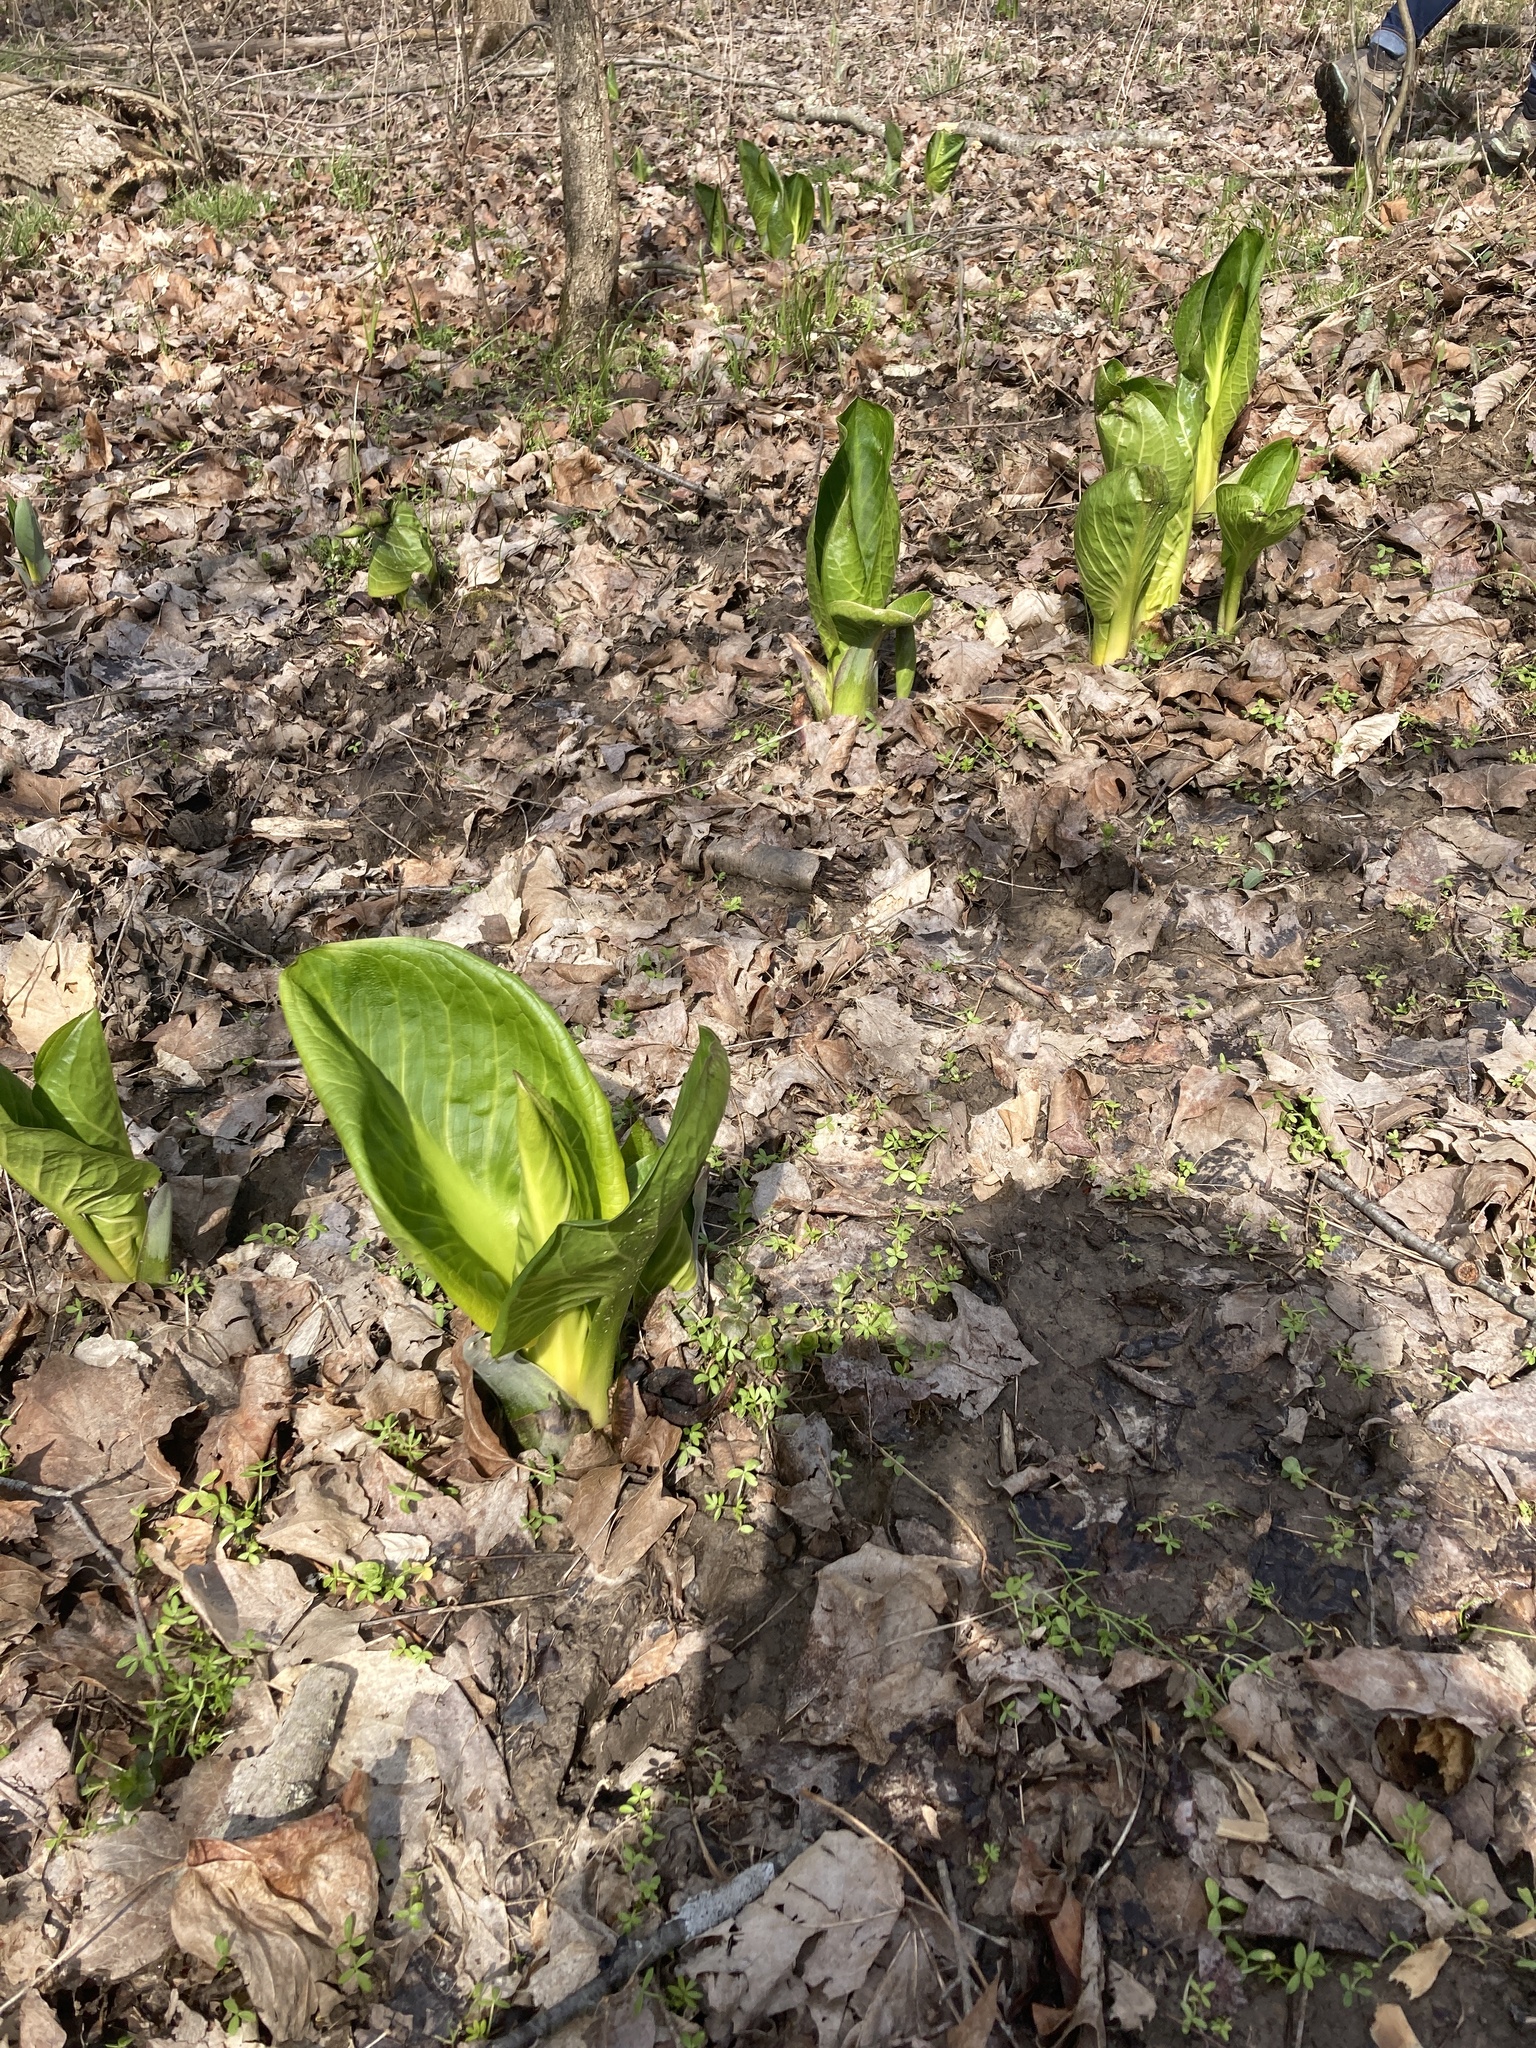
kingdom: Plantae
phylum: Tracheophyta
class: Liliopsida
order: Alismatales
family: Araceae
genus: Symplocarpus
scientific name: Symplocarpus foetidus
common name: Eastern skunk cabbage
